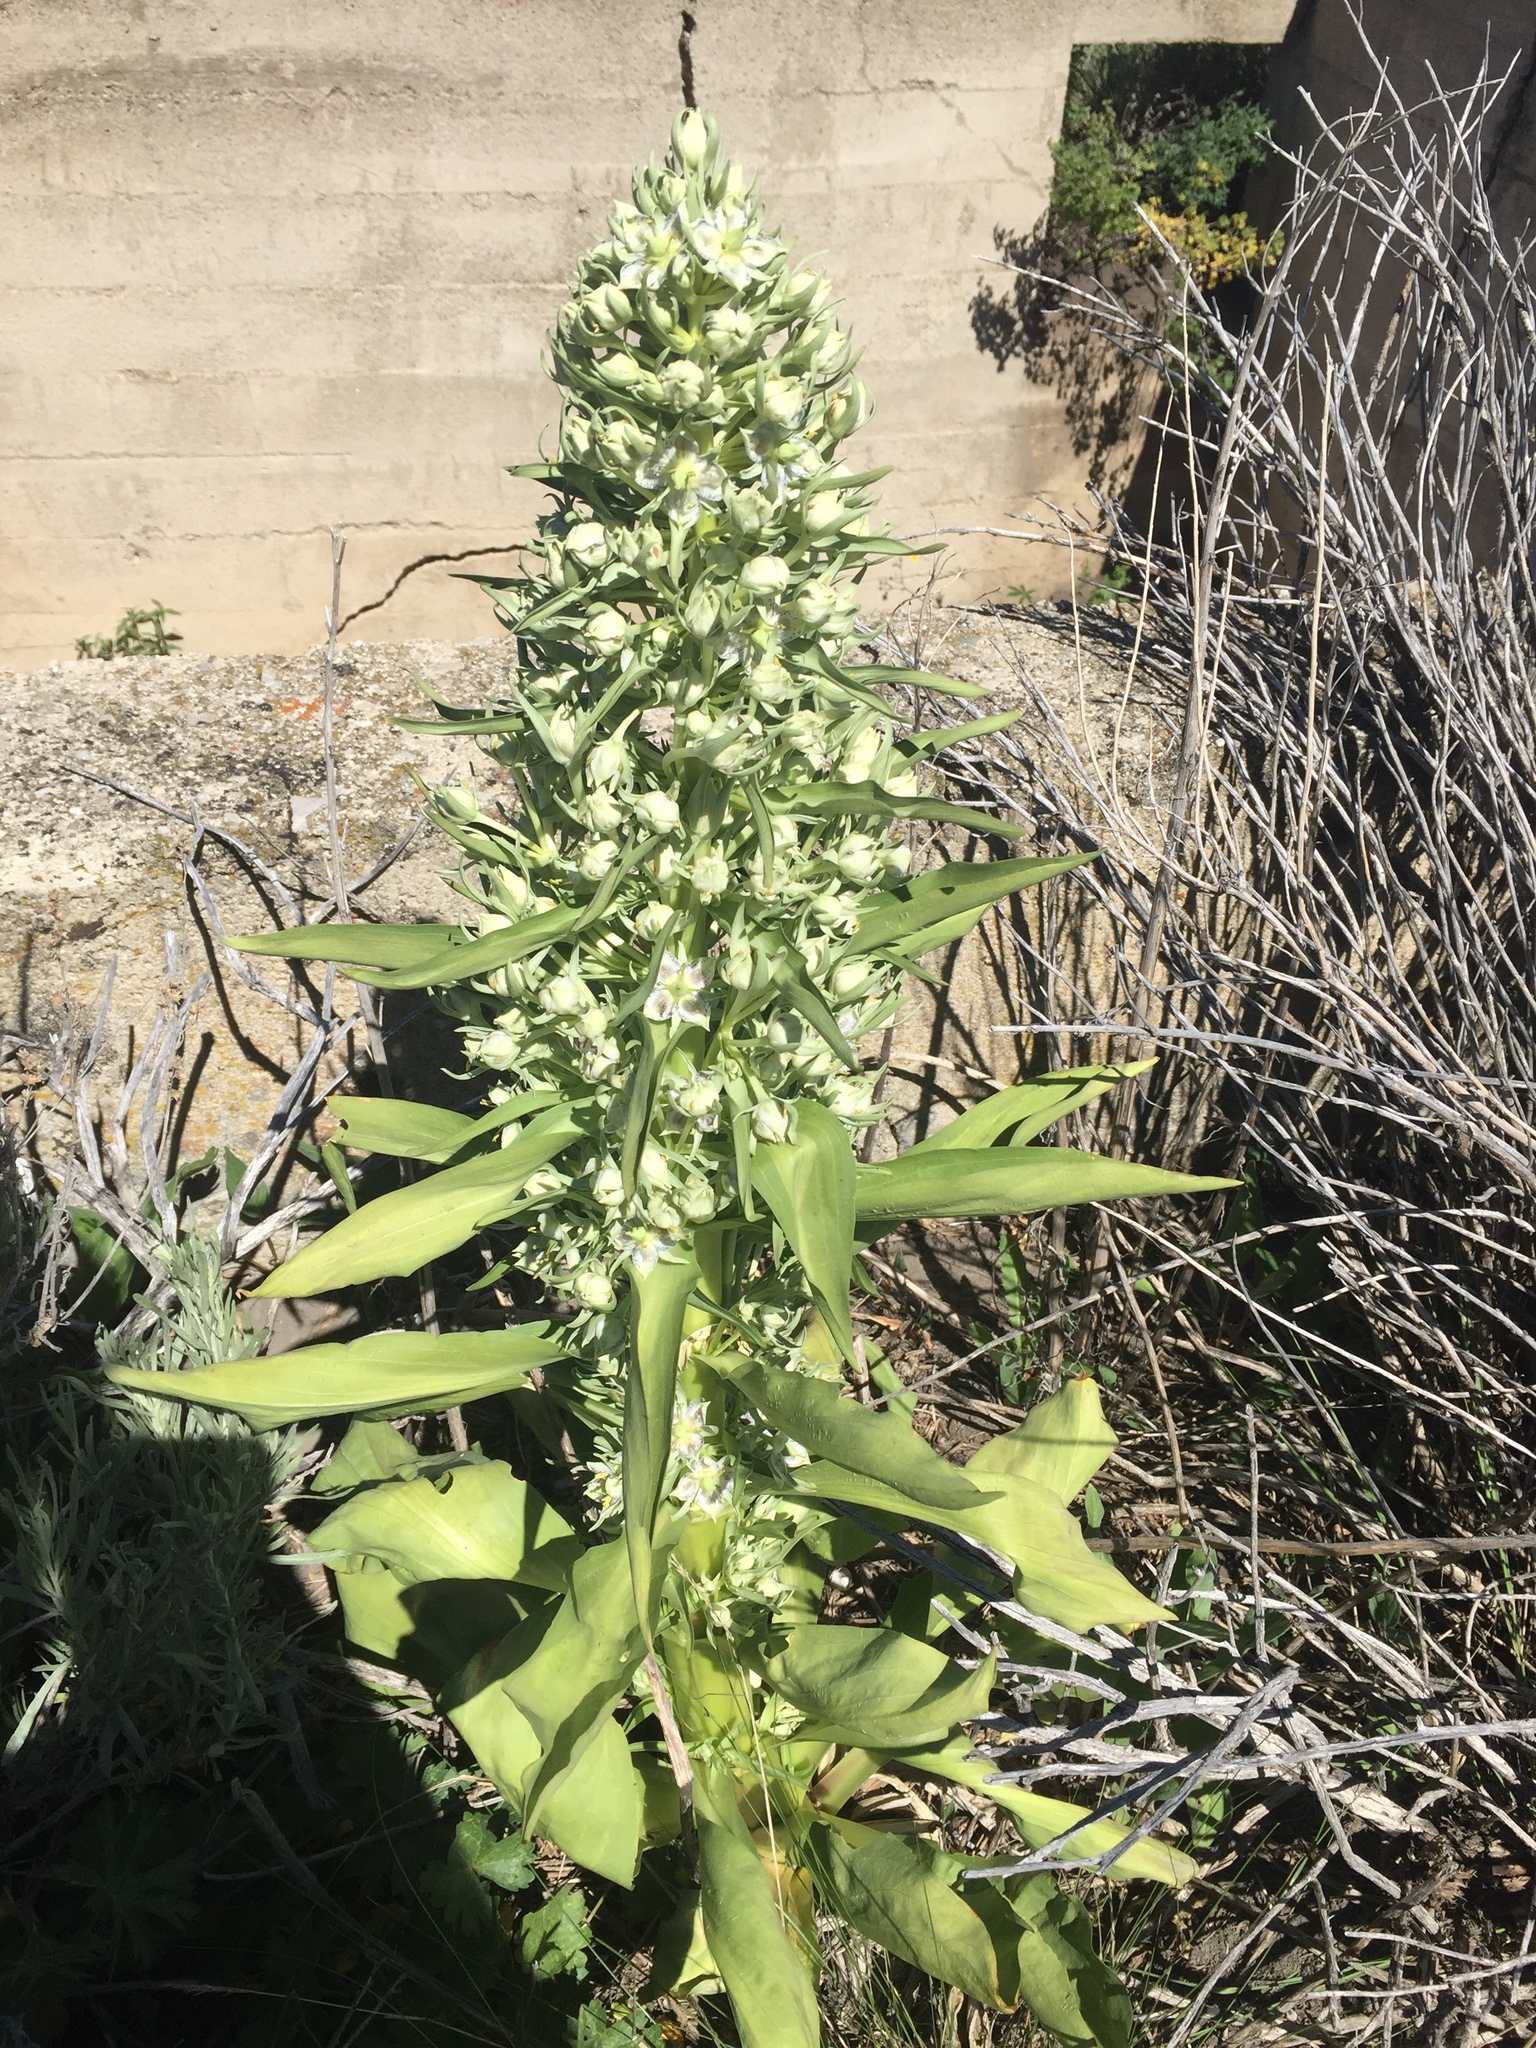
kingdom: Plantae
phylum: Tracheophyta
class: Magnoliopsida
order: Gentianales
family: Gentianaceae
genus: Frasera
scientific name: Frasera speciosa
